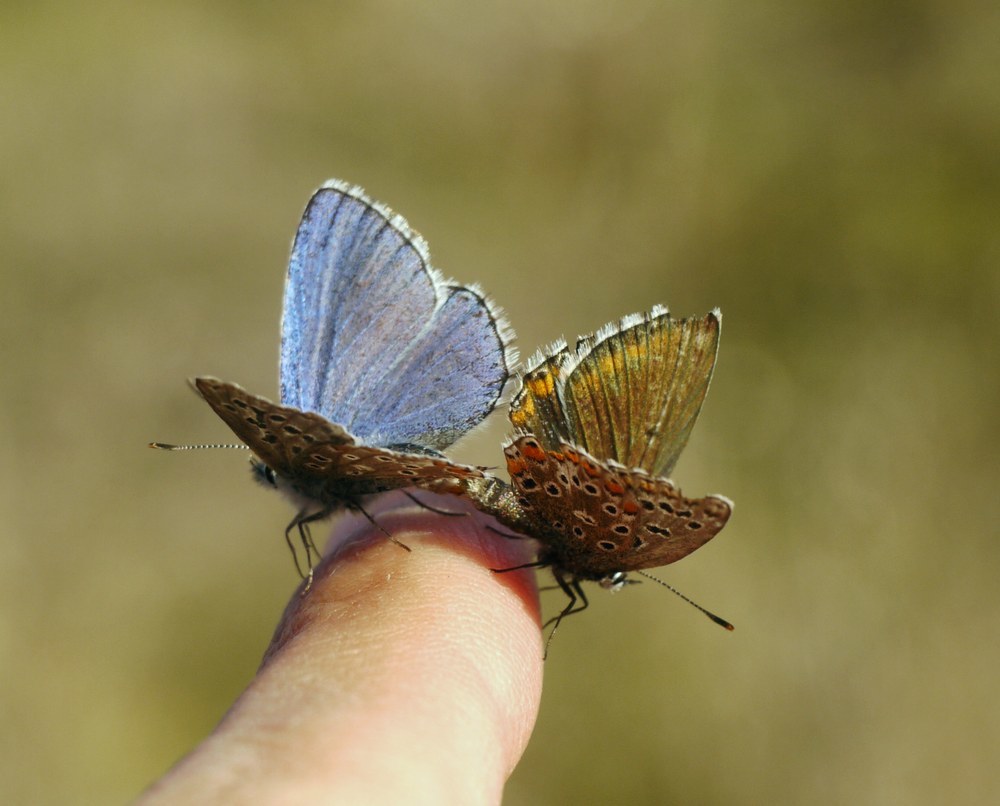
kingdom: Animalia
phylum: Arthropoda
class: Insecta
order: Lepidoptera
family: Lycaenidae
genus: Lysandra
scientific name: Lysandra bellargus
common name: Adonis blue
